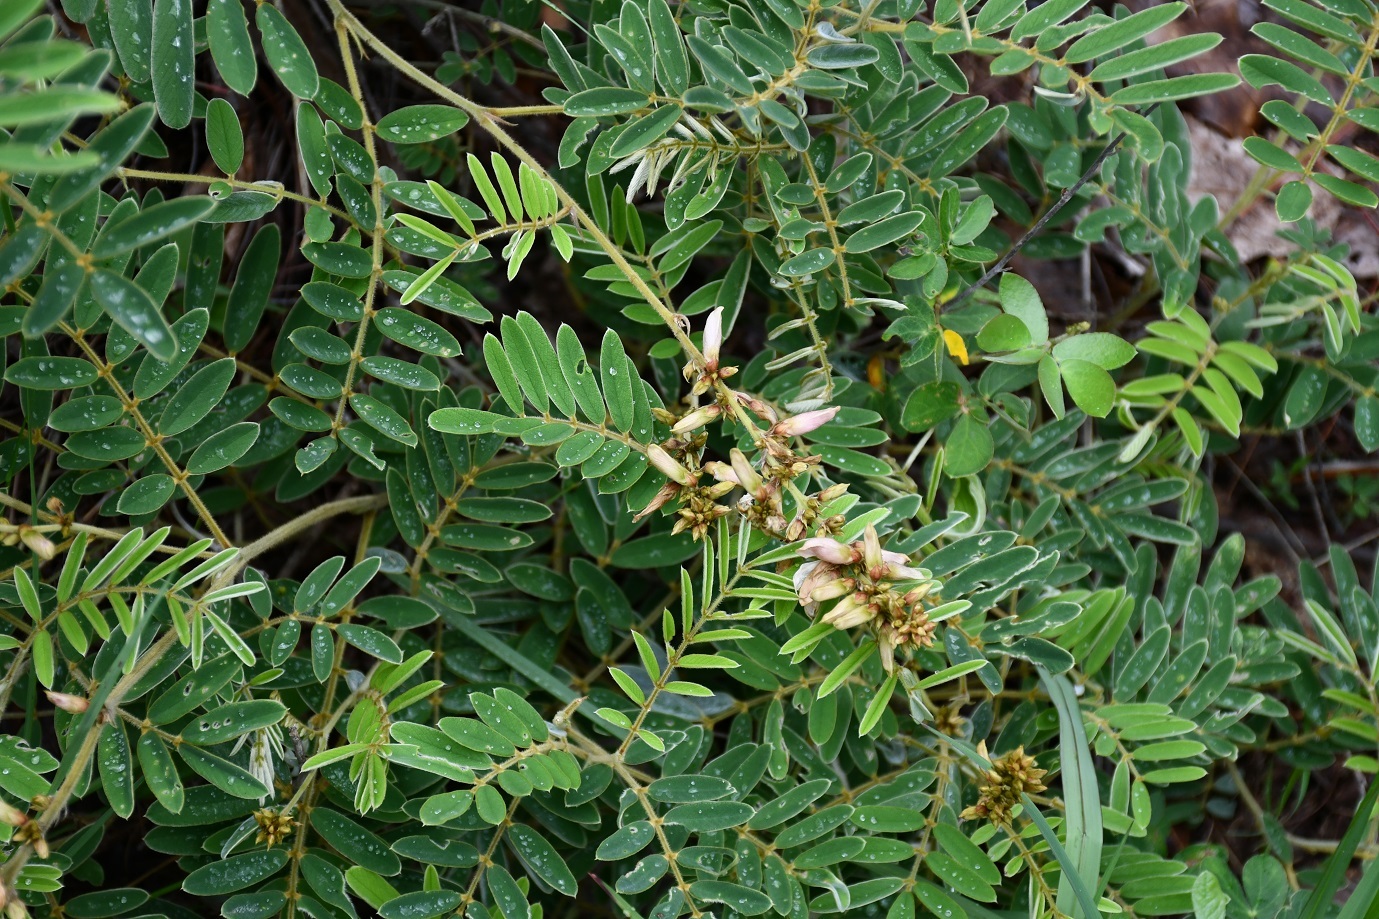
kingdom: Plantae
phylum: Tracheophyta
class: Magnoliopsida
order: Fabales
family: Fabaceae
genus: Astragalus
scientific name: Astragalus guatemalensis
